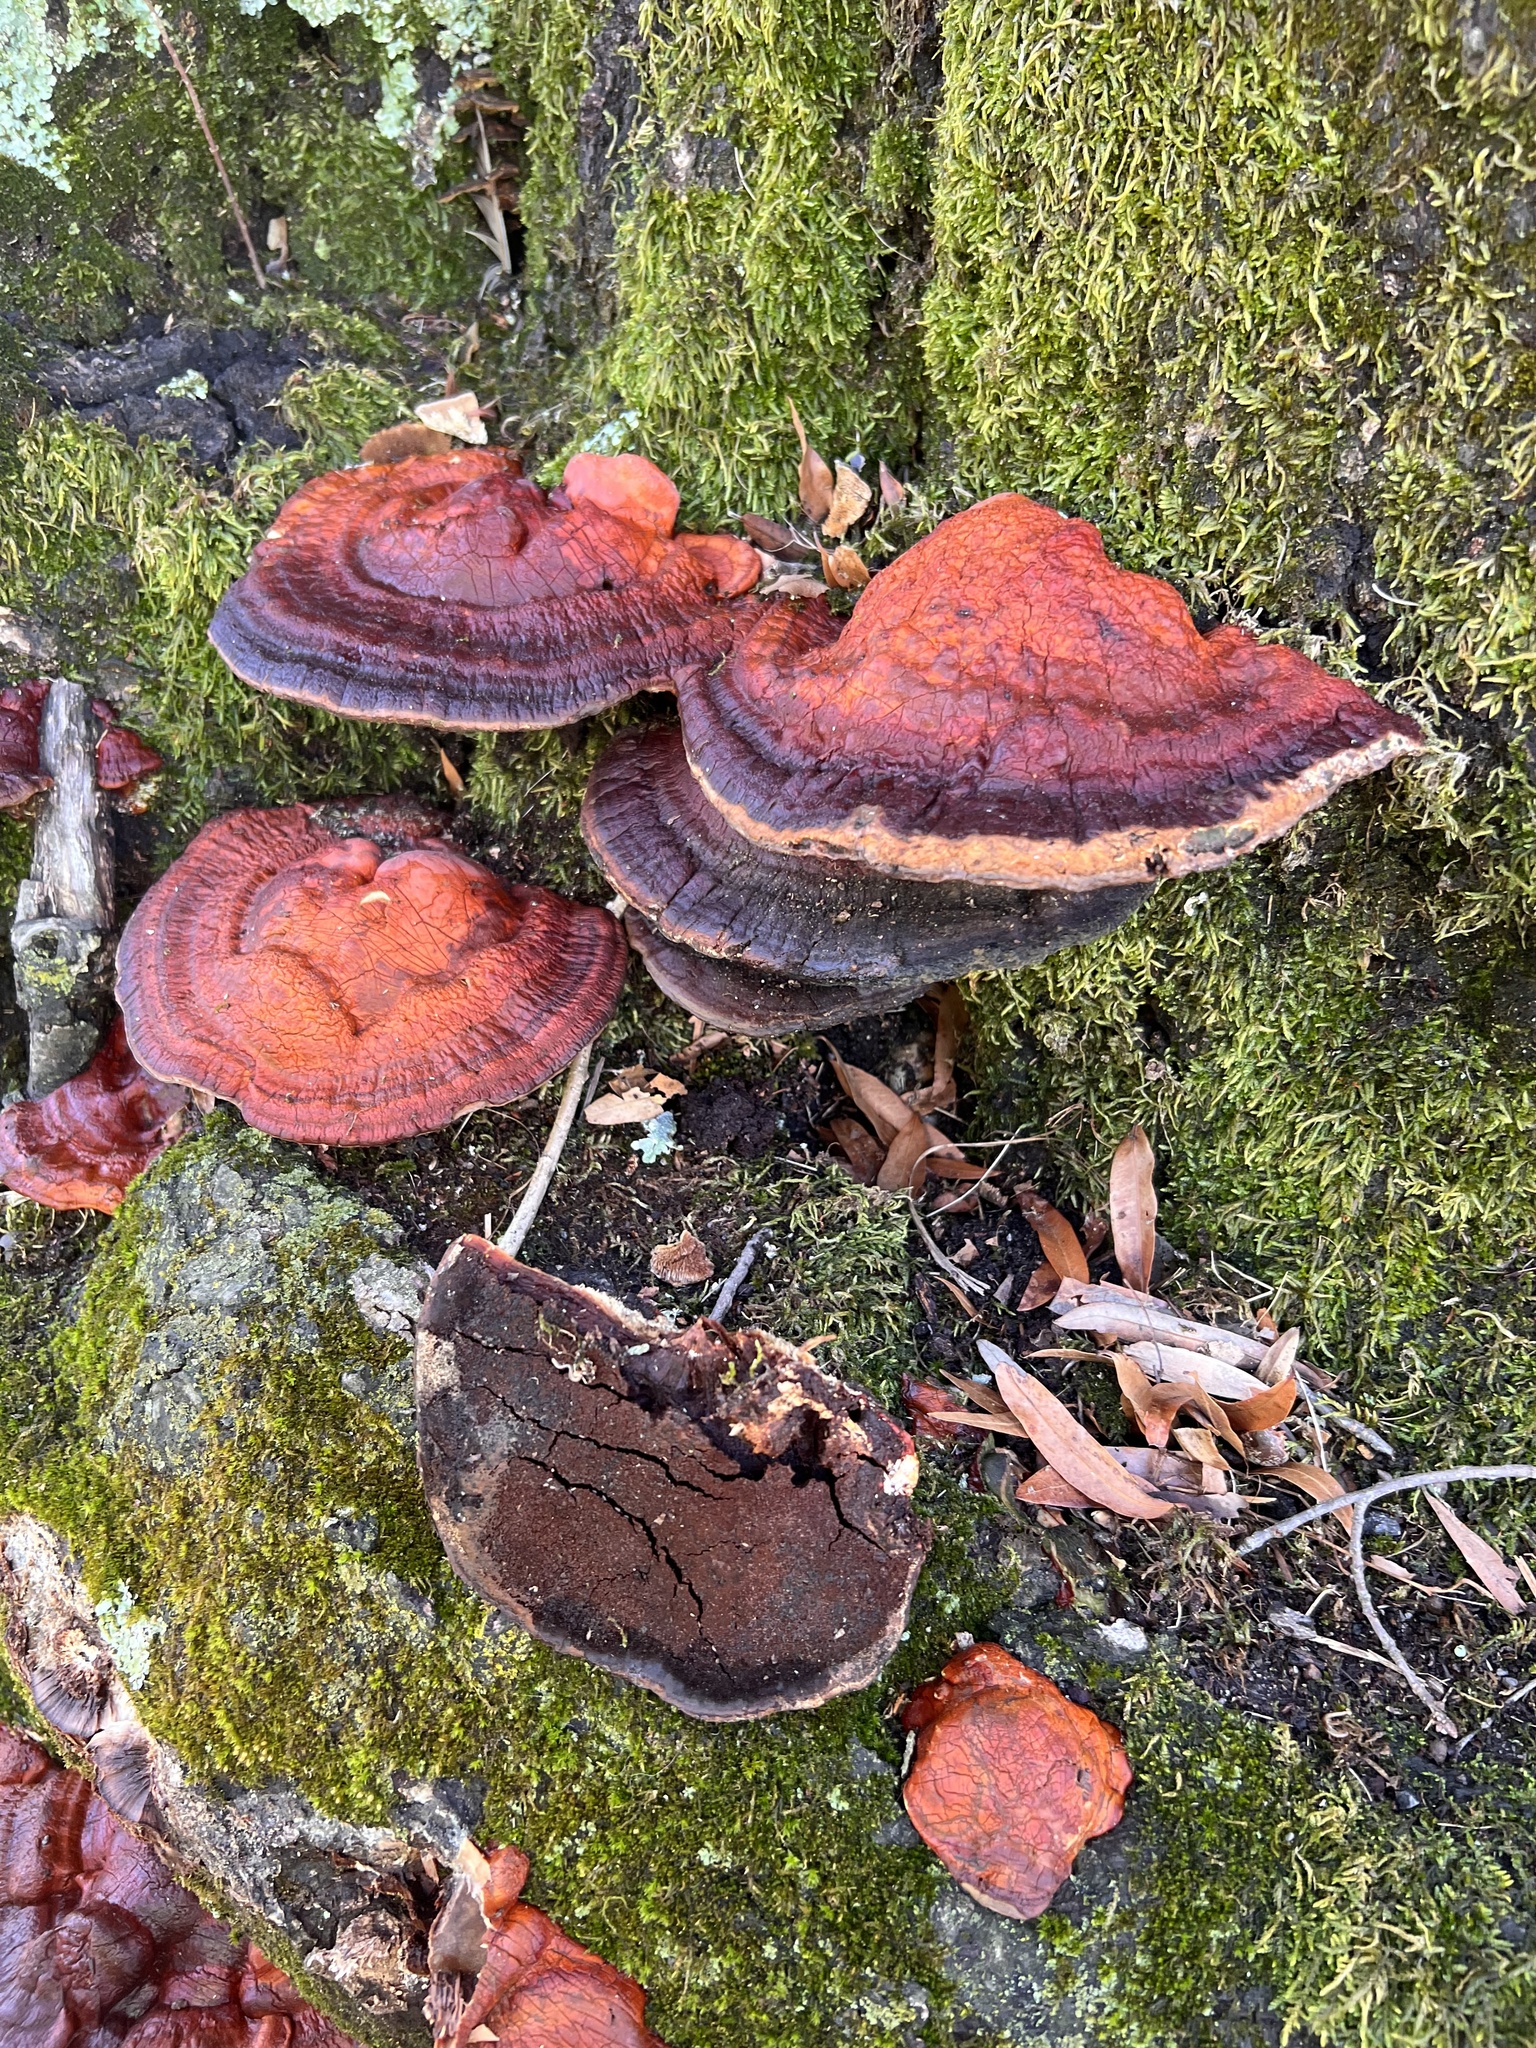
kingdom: Fungi
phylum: Basidiomycota
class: Agaricomycetes
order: Polyporales
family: Polyporaceae
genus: Ganoderma
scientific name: Ganoderma resinaceum
